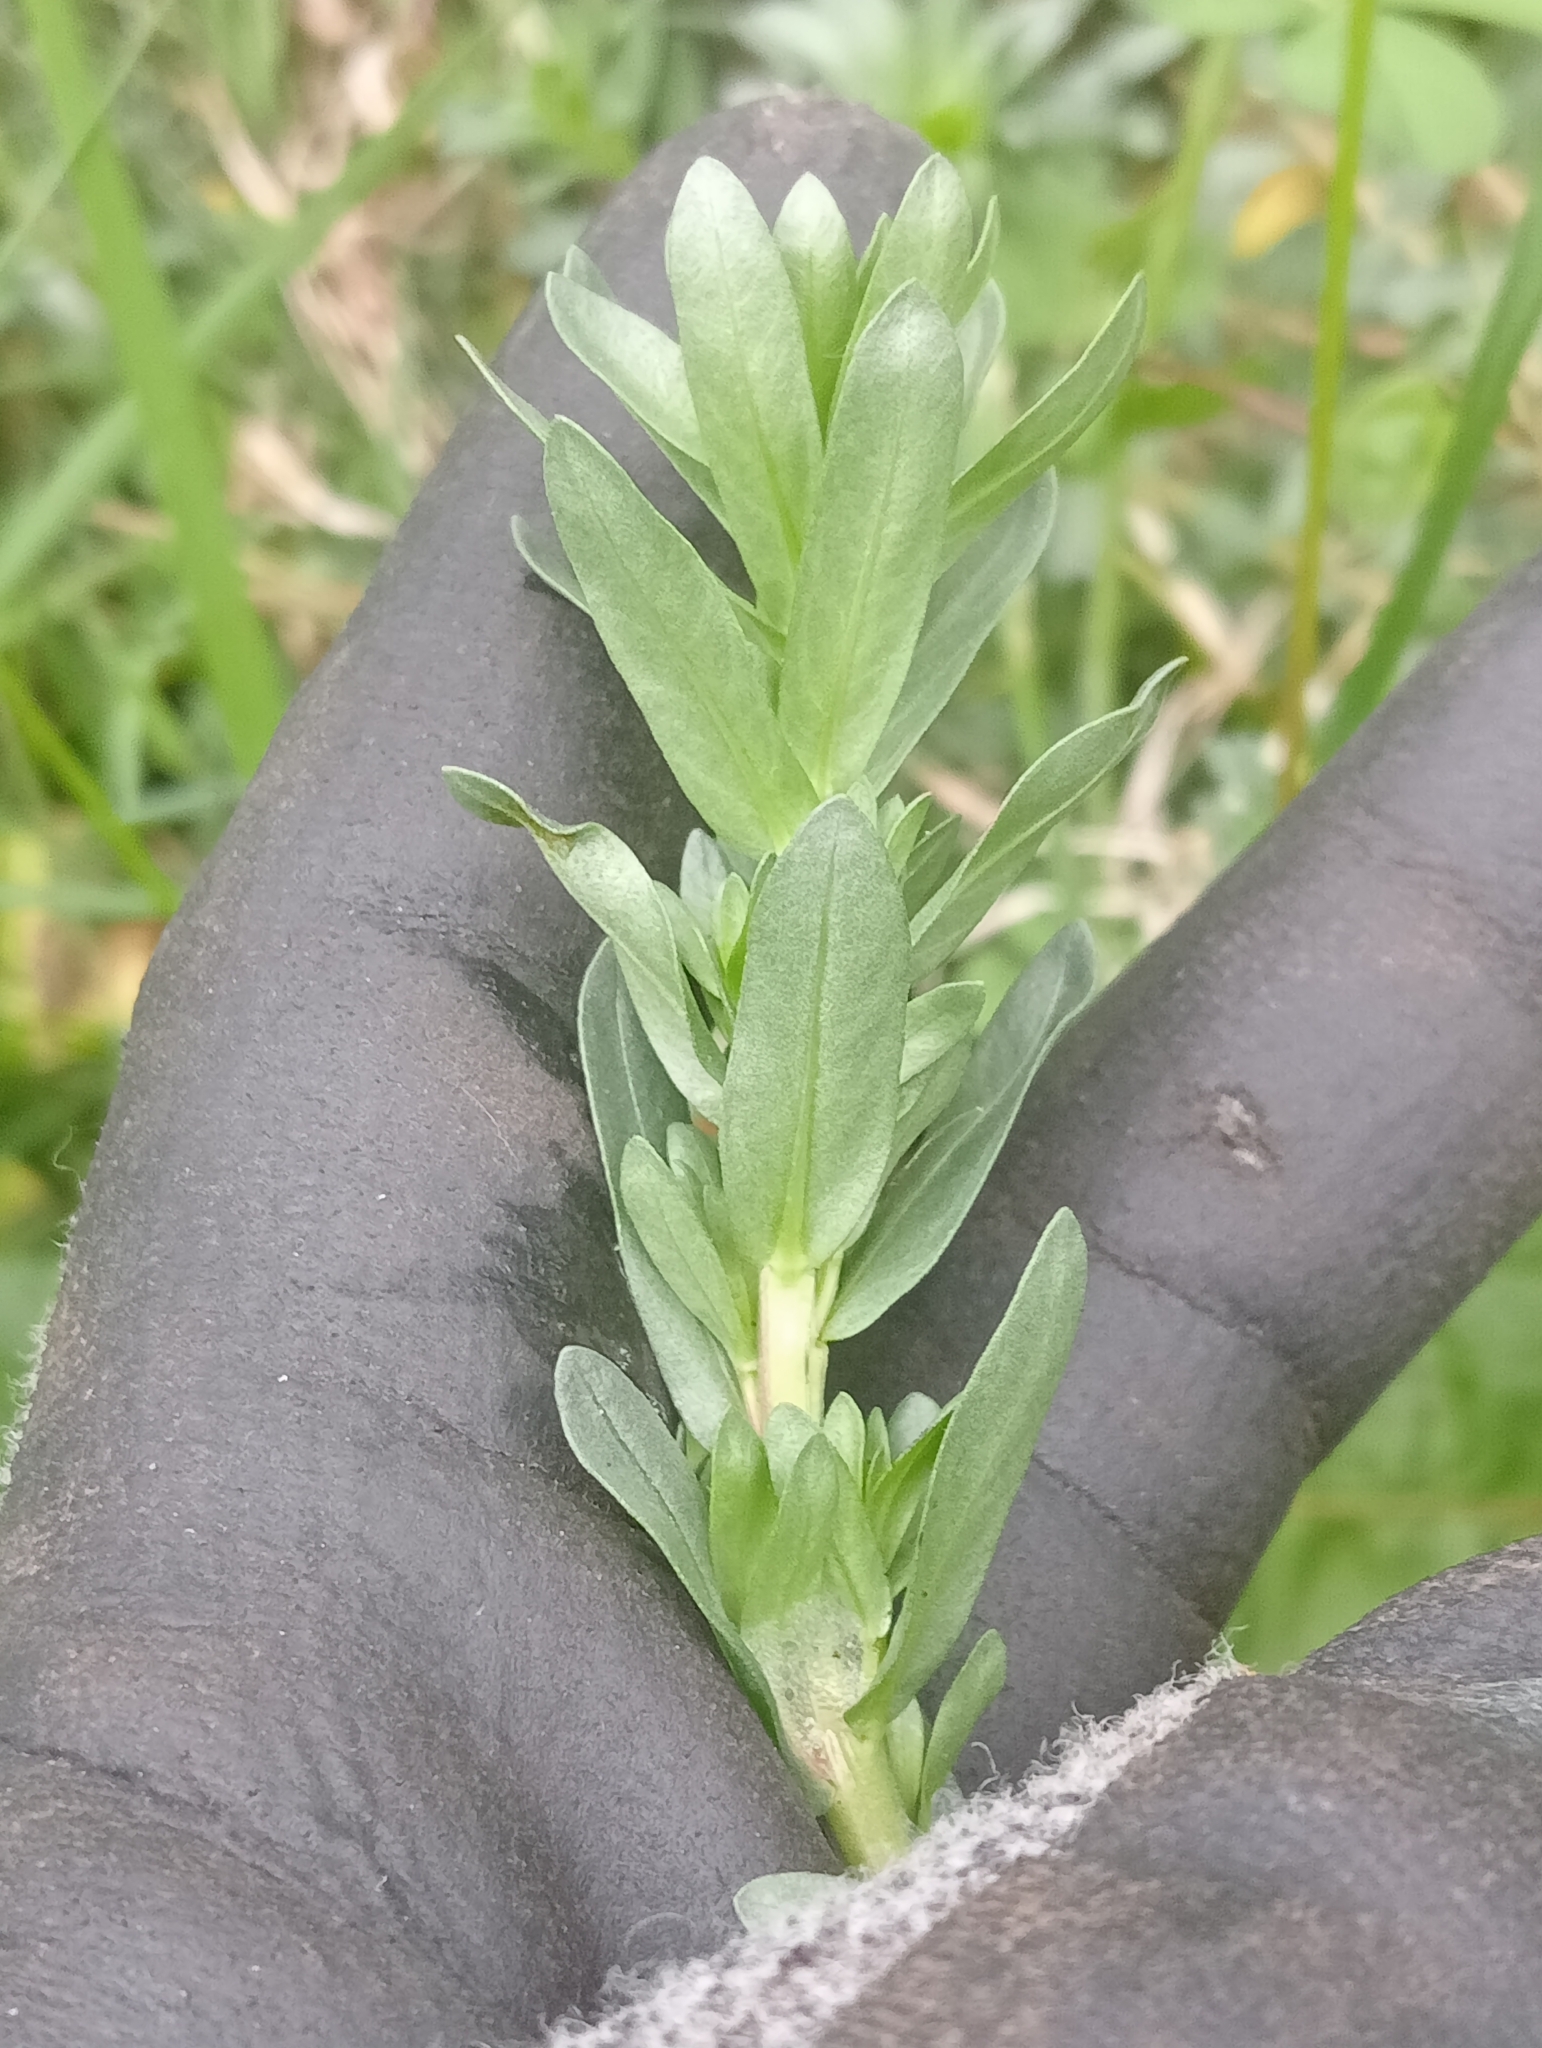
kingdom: Plantae
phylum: Tracheophyta
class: Magnoliopsida
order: Myrtales
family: Lythraceae
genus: Lythrum
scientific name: Lythrum hyssopifolia
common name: Grass-poly
